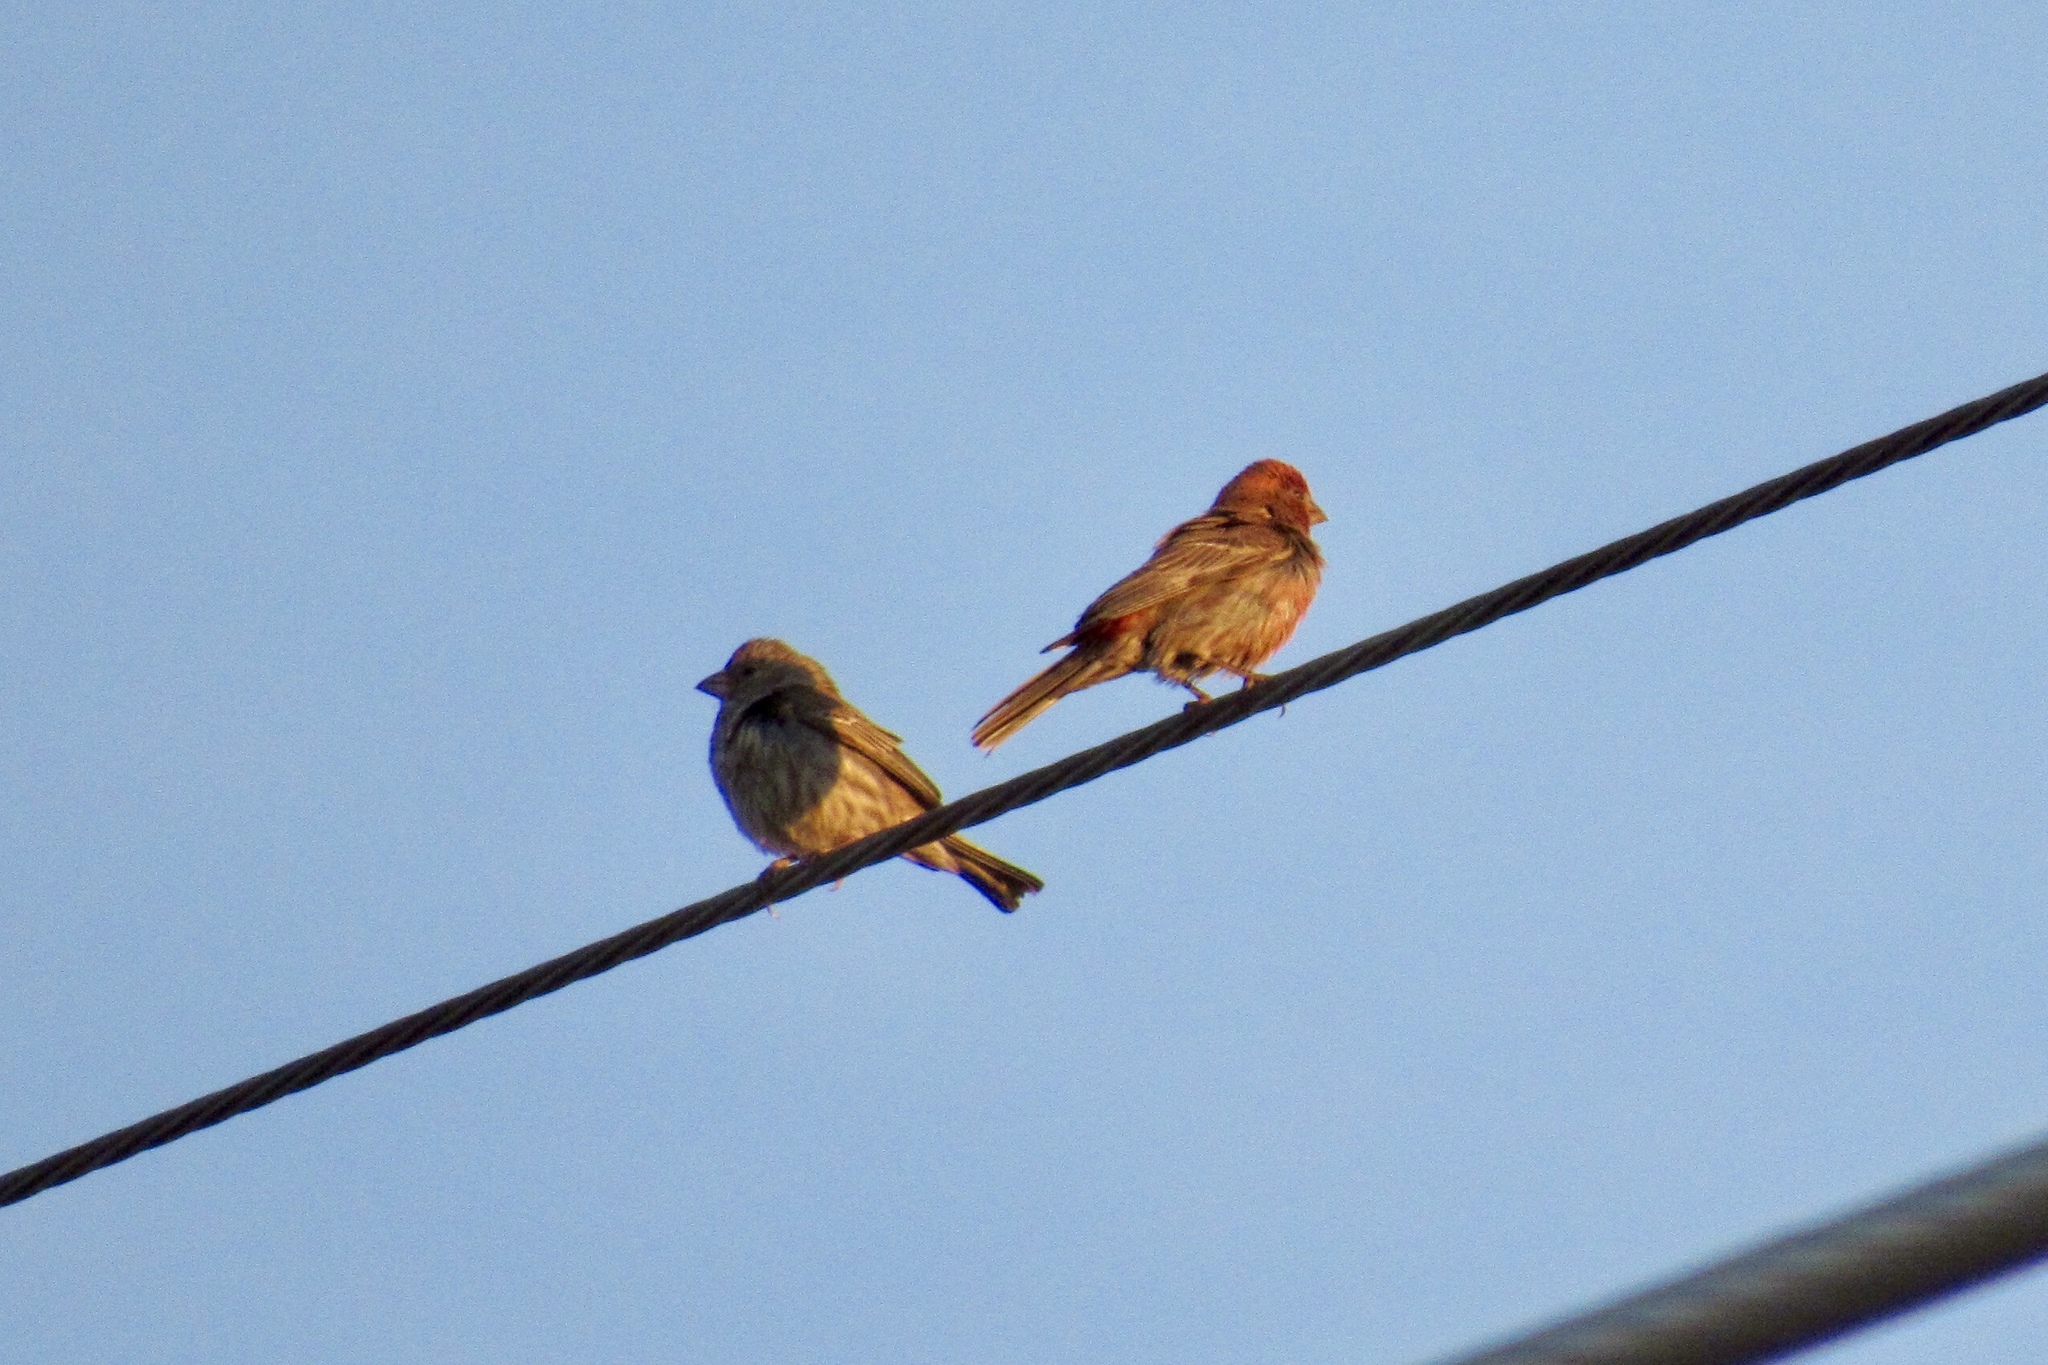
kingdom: Animalia
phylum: Chordata
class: Aves
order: Passeriformes
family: Fringillidae
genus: Haemorhous
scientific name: Haemorhous mexicanus
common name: House finch
